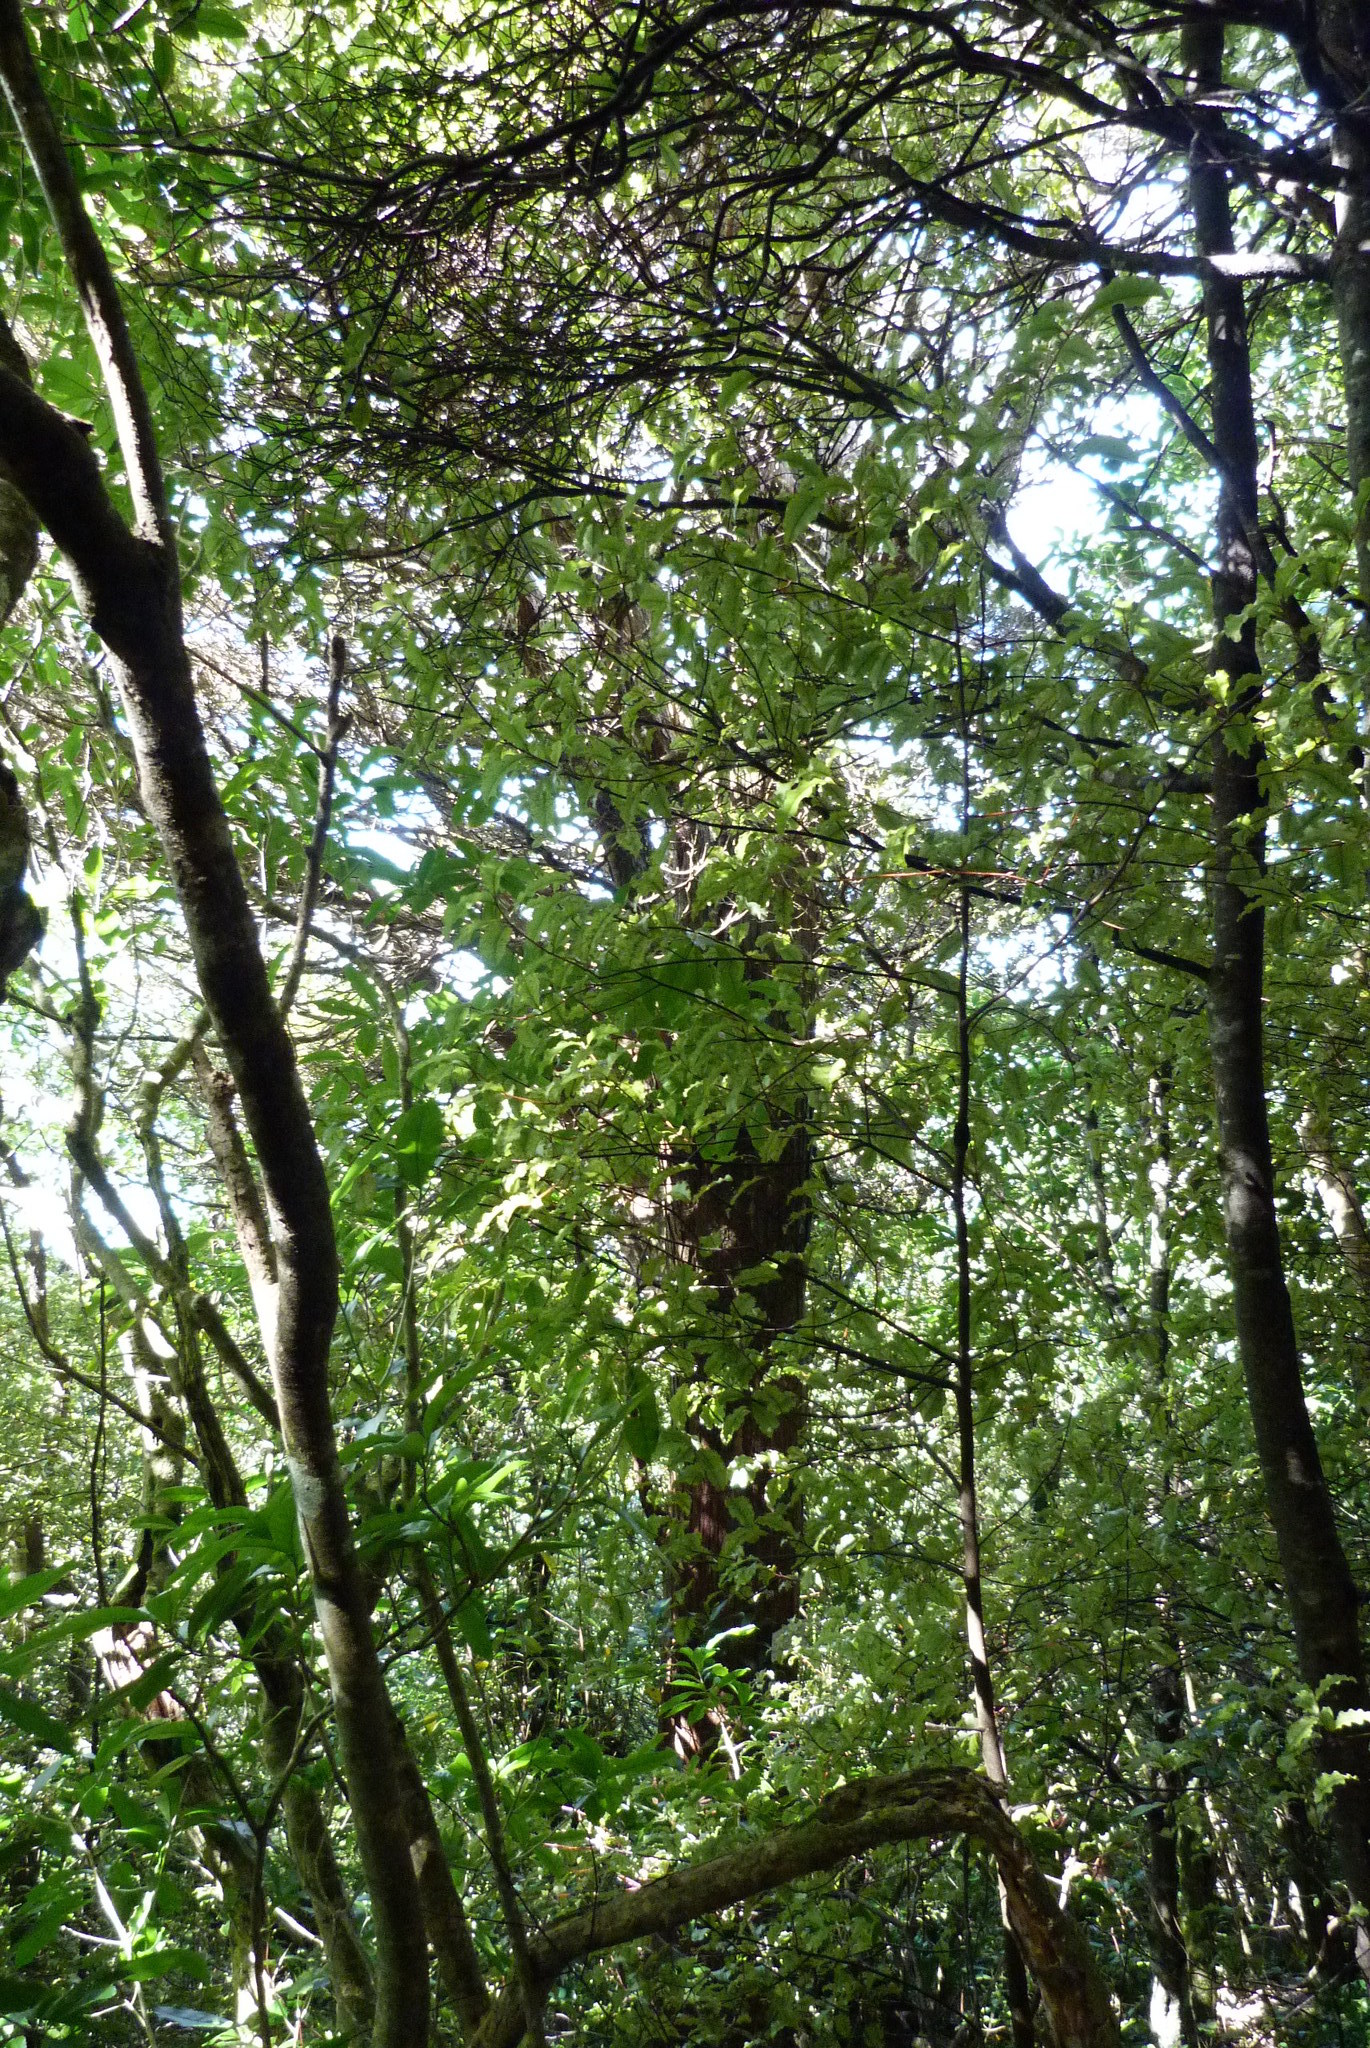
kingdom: Plantae
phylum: Tracheophyta
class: Pinopsida
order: Pinales
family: Podocarpaceae
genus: Podocarpus
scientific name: Podocarpus totara
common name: Totara
